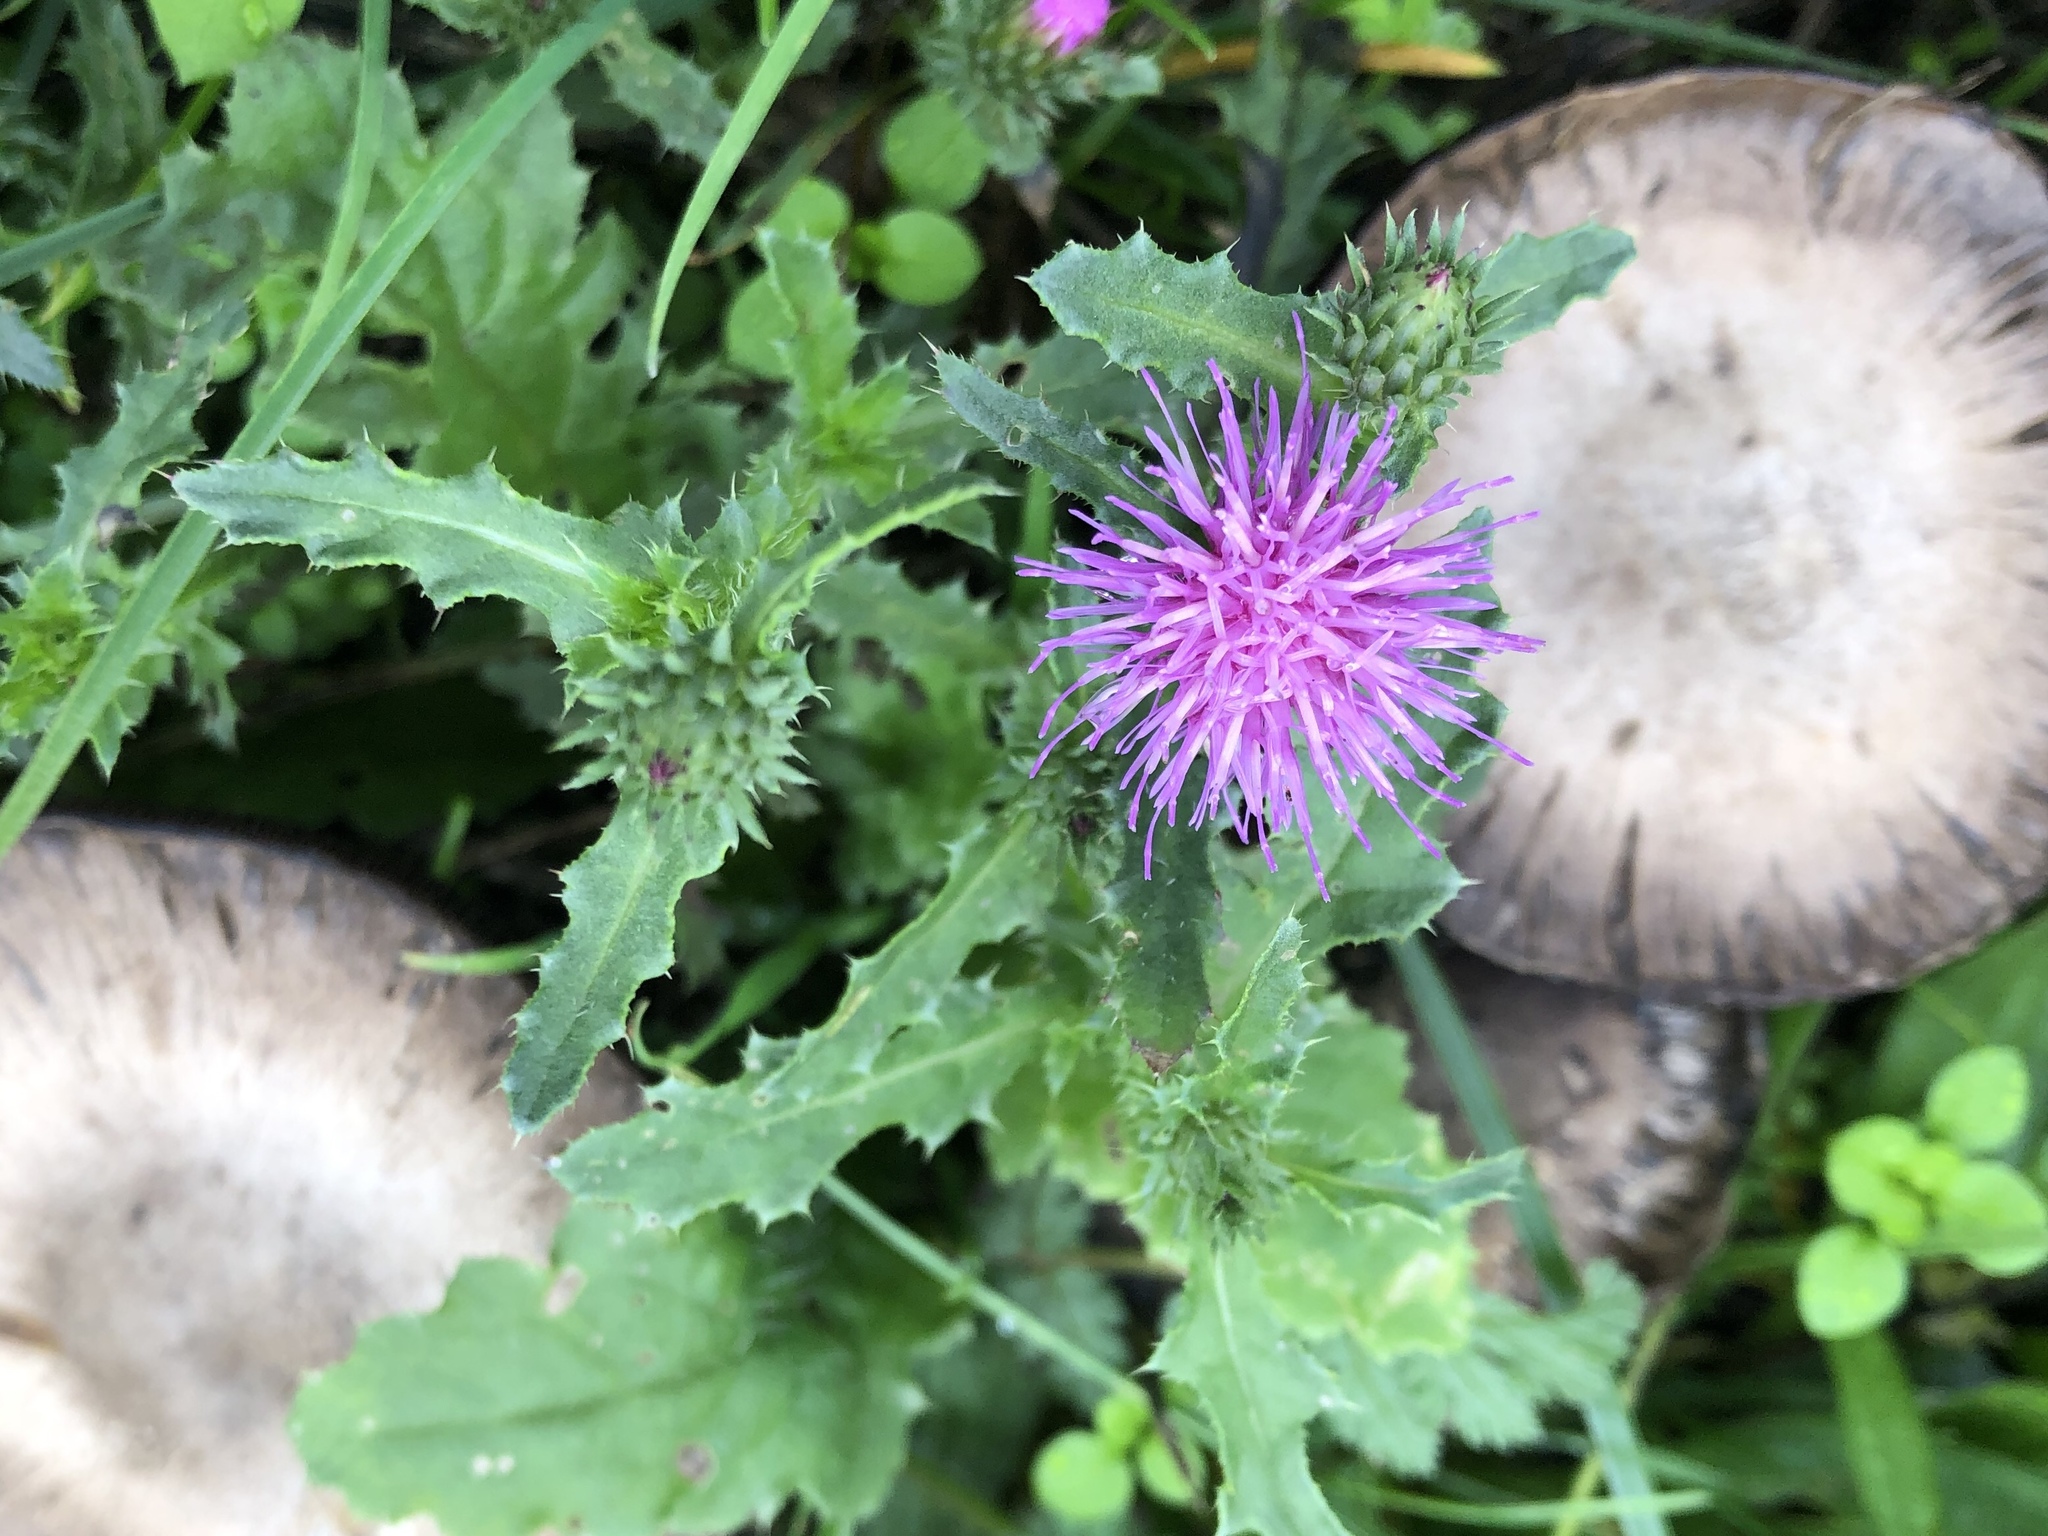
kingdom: Plantae
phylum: Tracheophyta
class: Magnoliopsida
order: Asterales
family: Asteraceae
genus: Carduus
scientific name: Carduus acanthoides
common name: Plumeless thistle
